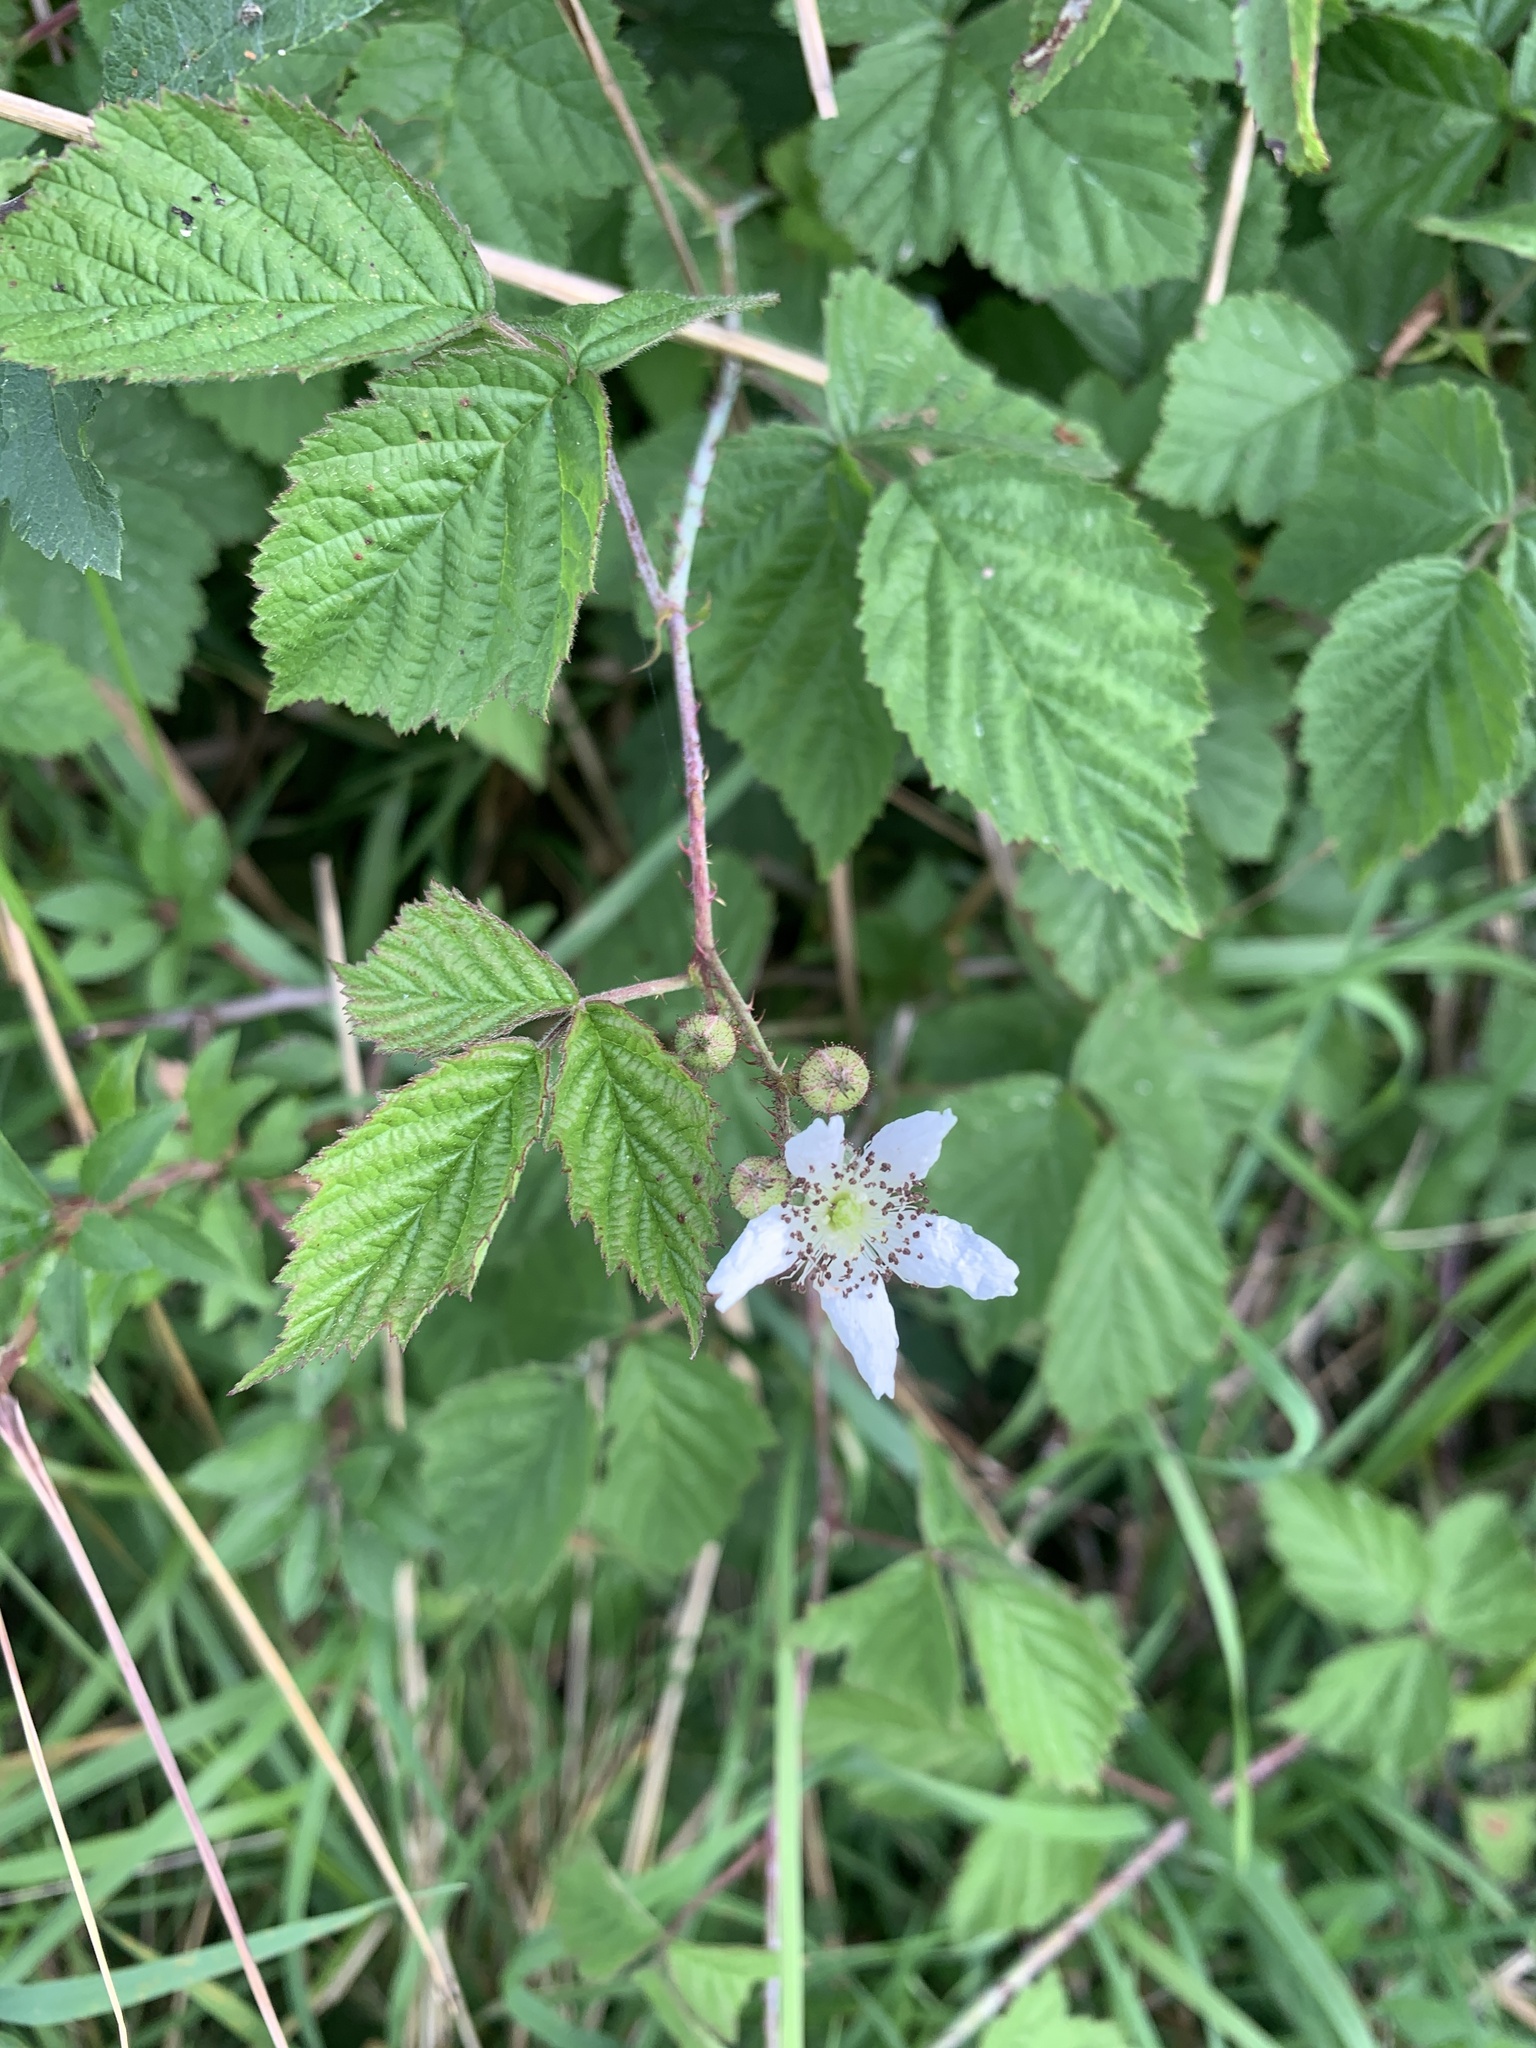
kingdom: Plantae
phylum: Tracheophyta
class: Magnoliopsida
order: Rosales
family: Rosaceae
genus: Rubus
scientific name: Rubus fruticosus
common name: Blackberry, bramble
